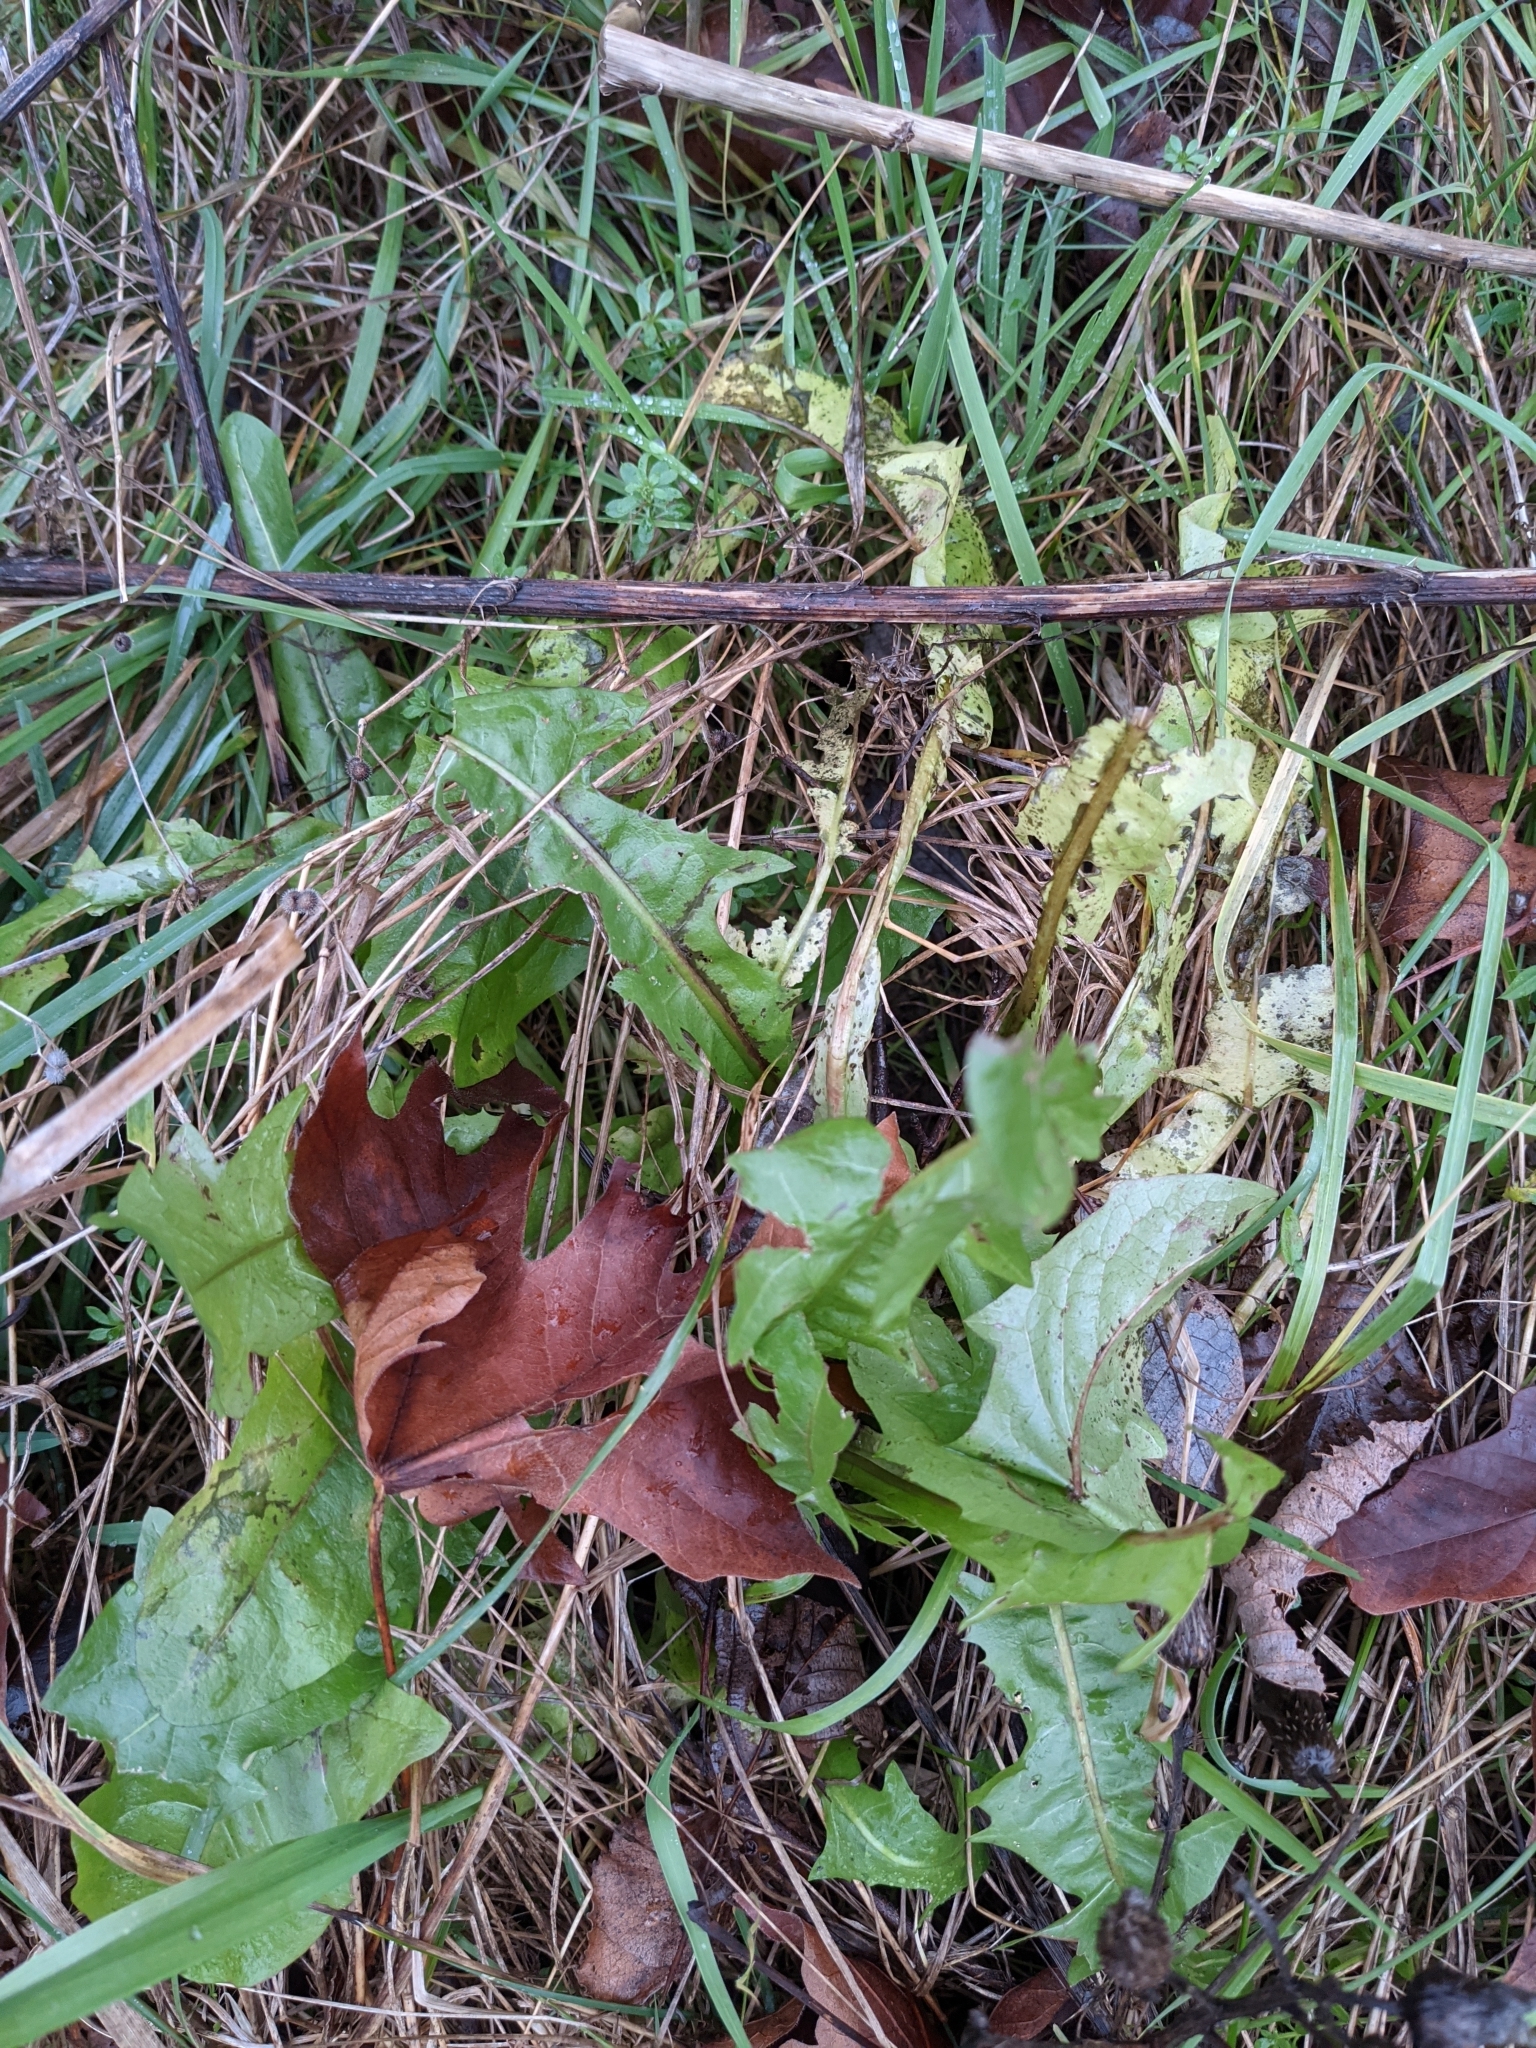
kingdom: Plantae
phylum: Tracheophyta
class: Magnoliopsida
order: Asterales
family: Asteraceae
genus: Taraxacum
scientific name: Taraxacum officinale
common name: Common dandelion
